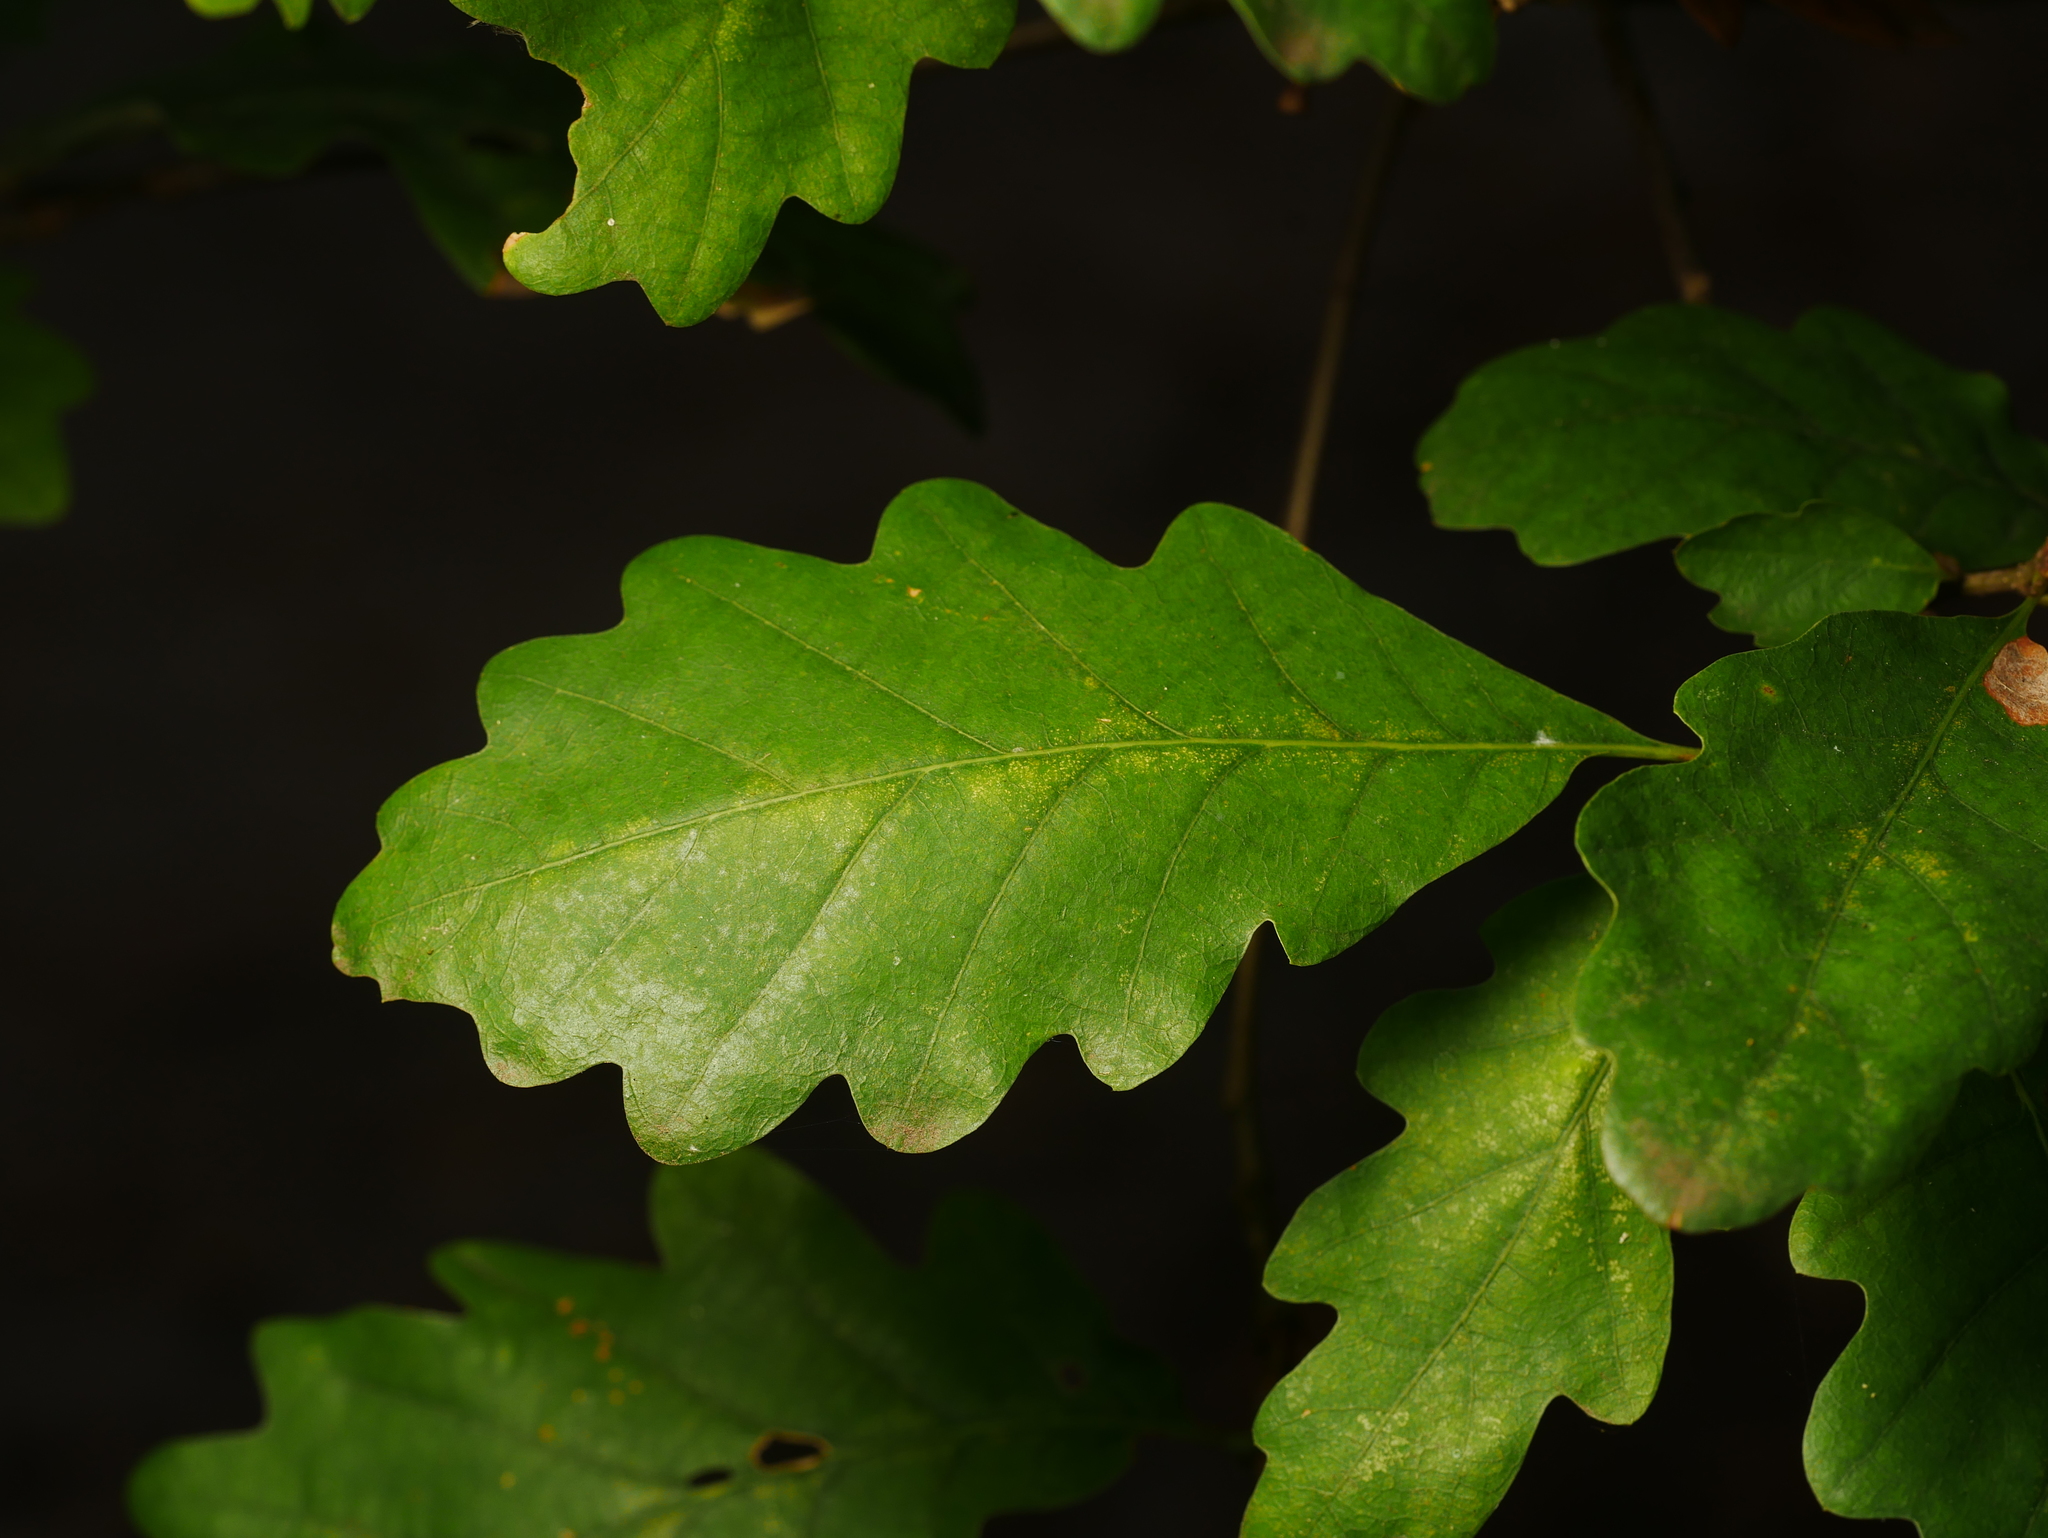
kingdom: Plantae
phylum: Tracheophyta
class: Magnoliopsida
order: Fagales
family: Fagaceae
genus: Quercus
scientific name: Quercus robur
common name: Pedunculate oak
